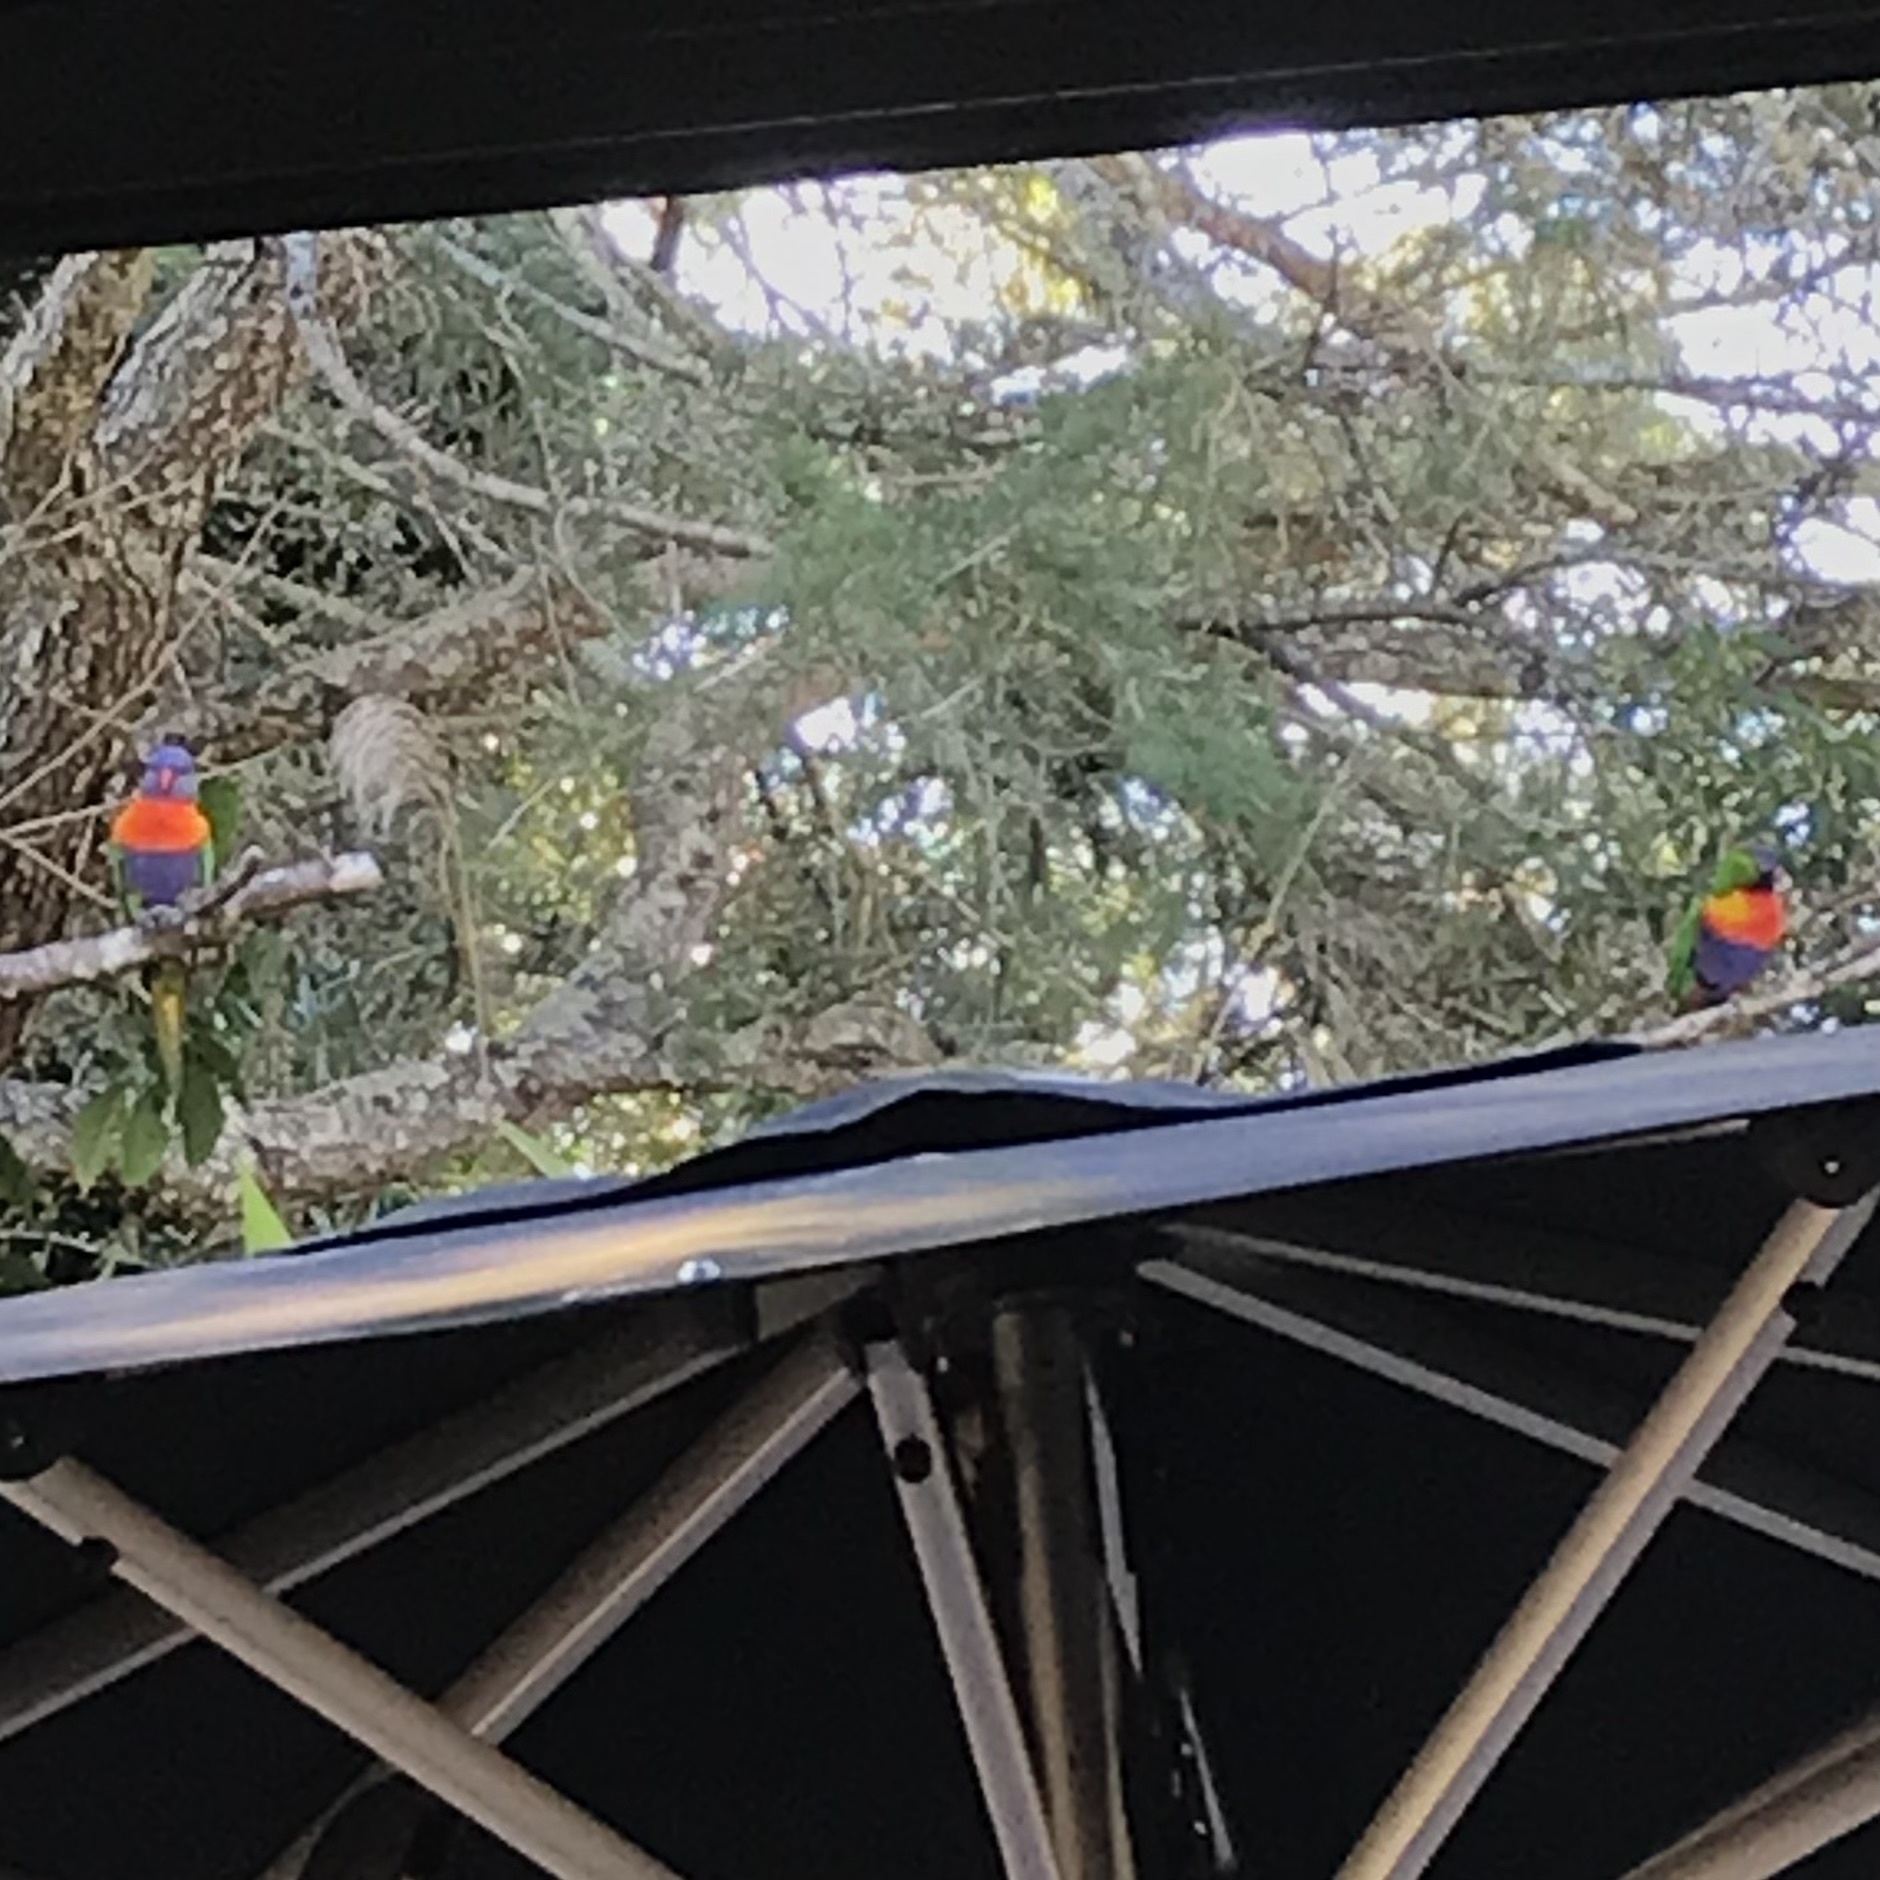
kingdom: Animalia
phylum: Chordata
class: Aves
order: Psittaciformes
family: Psittacidae
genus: Trichoglossus
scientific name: Trichoglossus haematodus
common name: Coconut lorikeet
